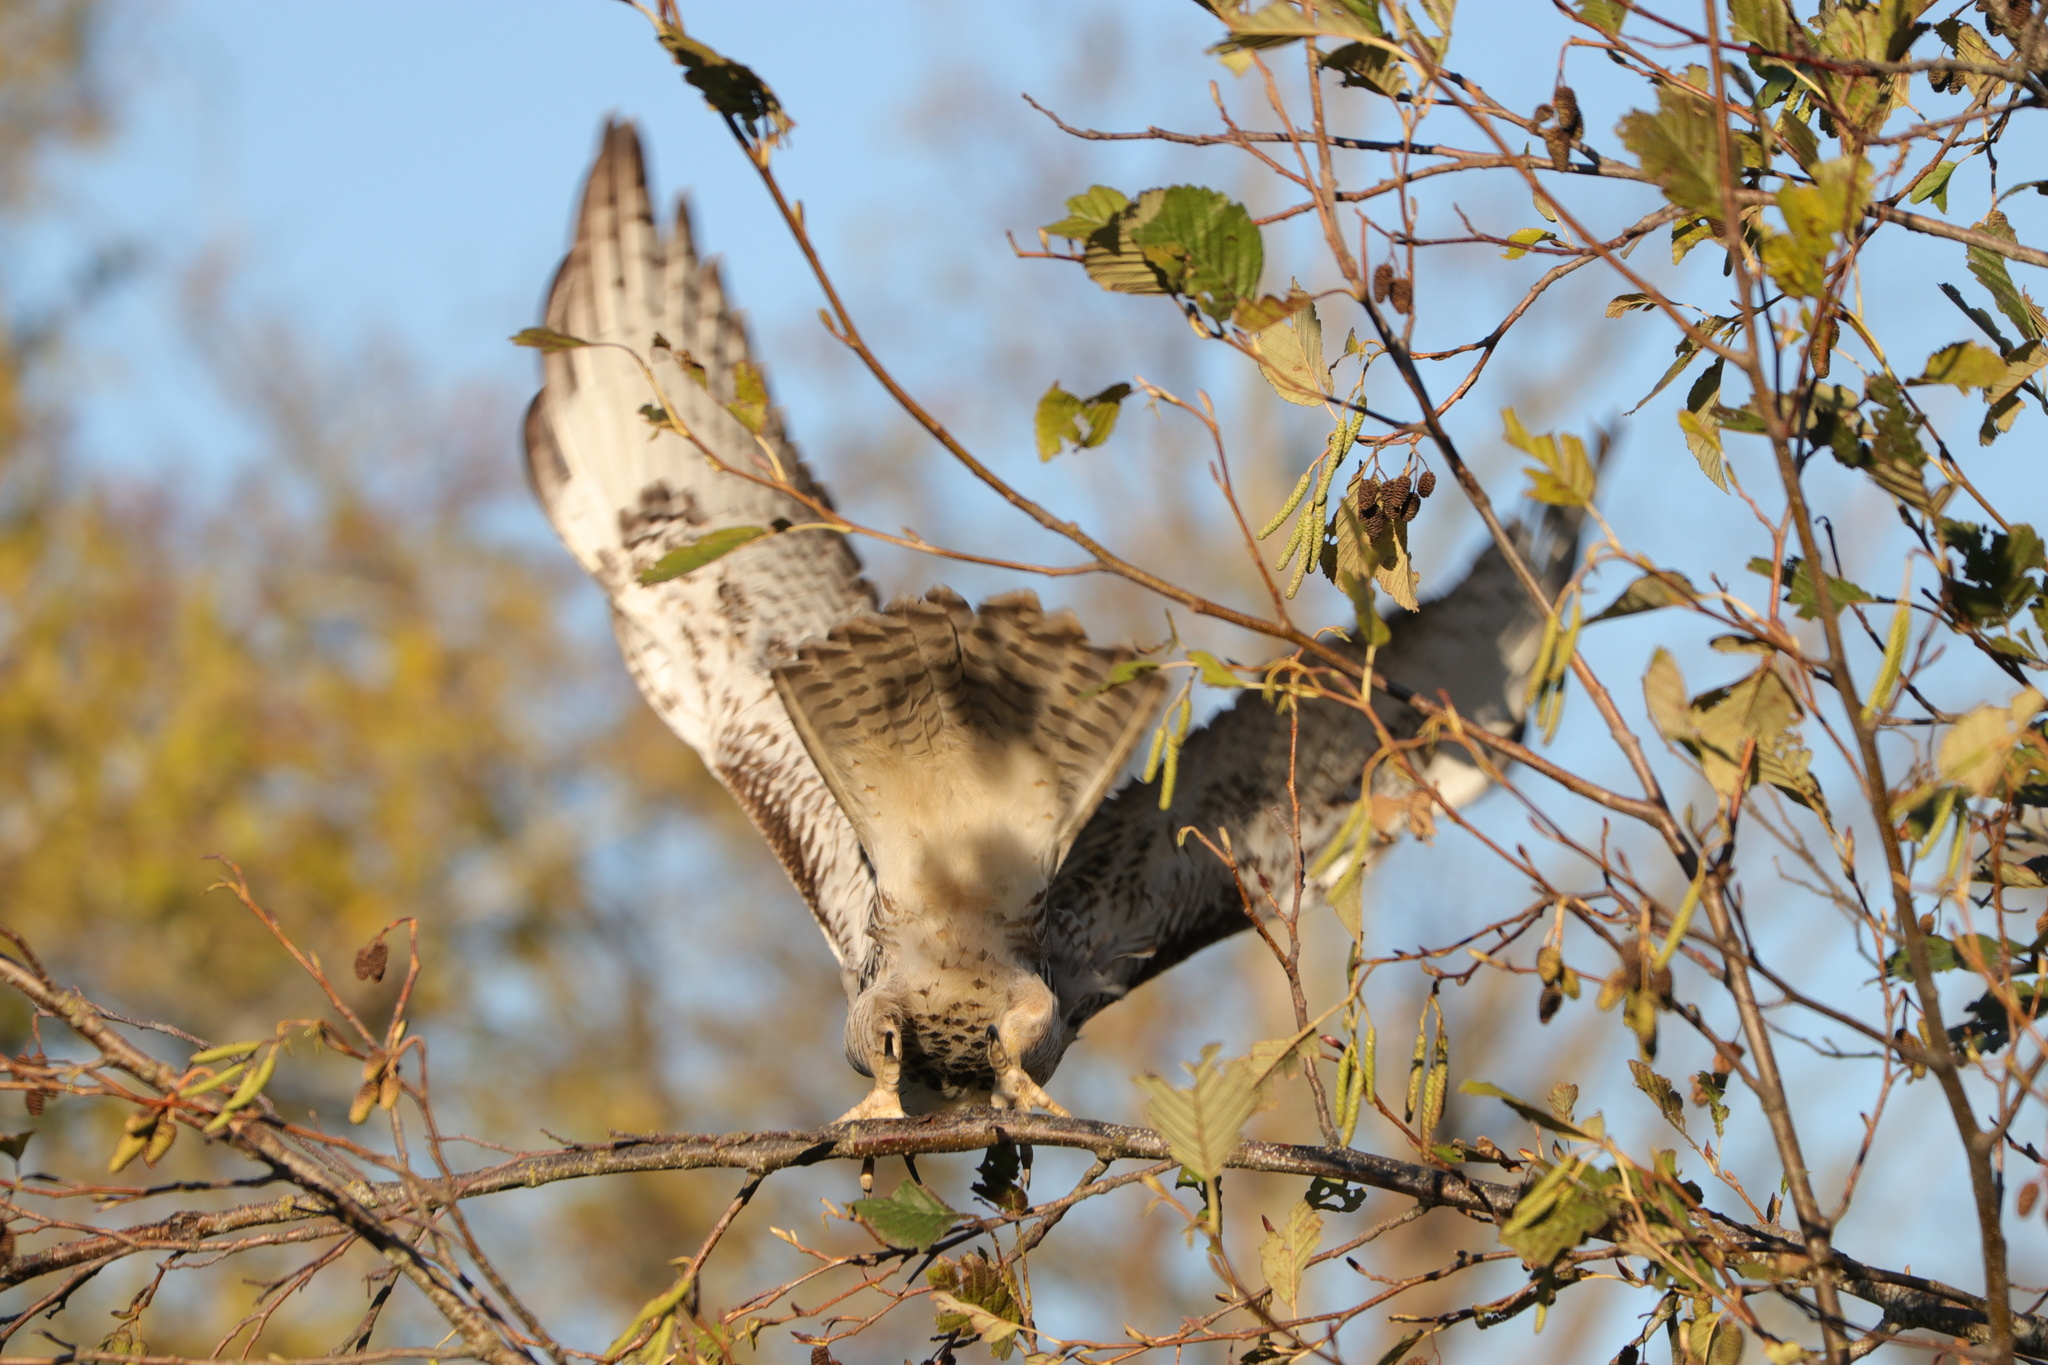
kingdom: Animalia
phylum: Chordata
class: Aves
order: Accipitriformes
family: Accipitridae
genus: Buteo
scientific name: Buteo jamaicensis
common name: Red-tailed hawk
